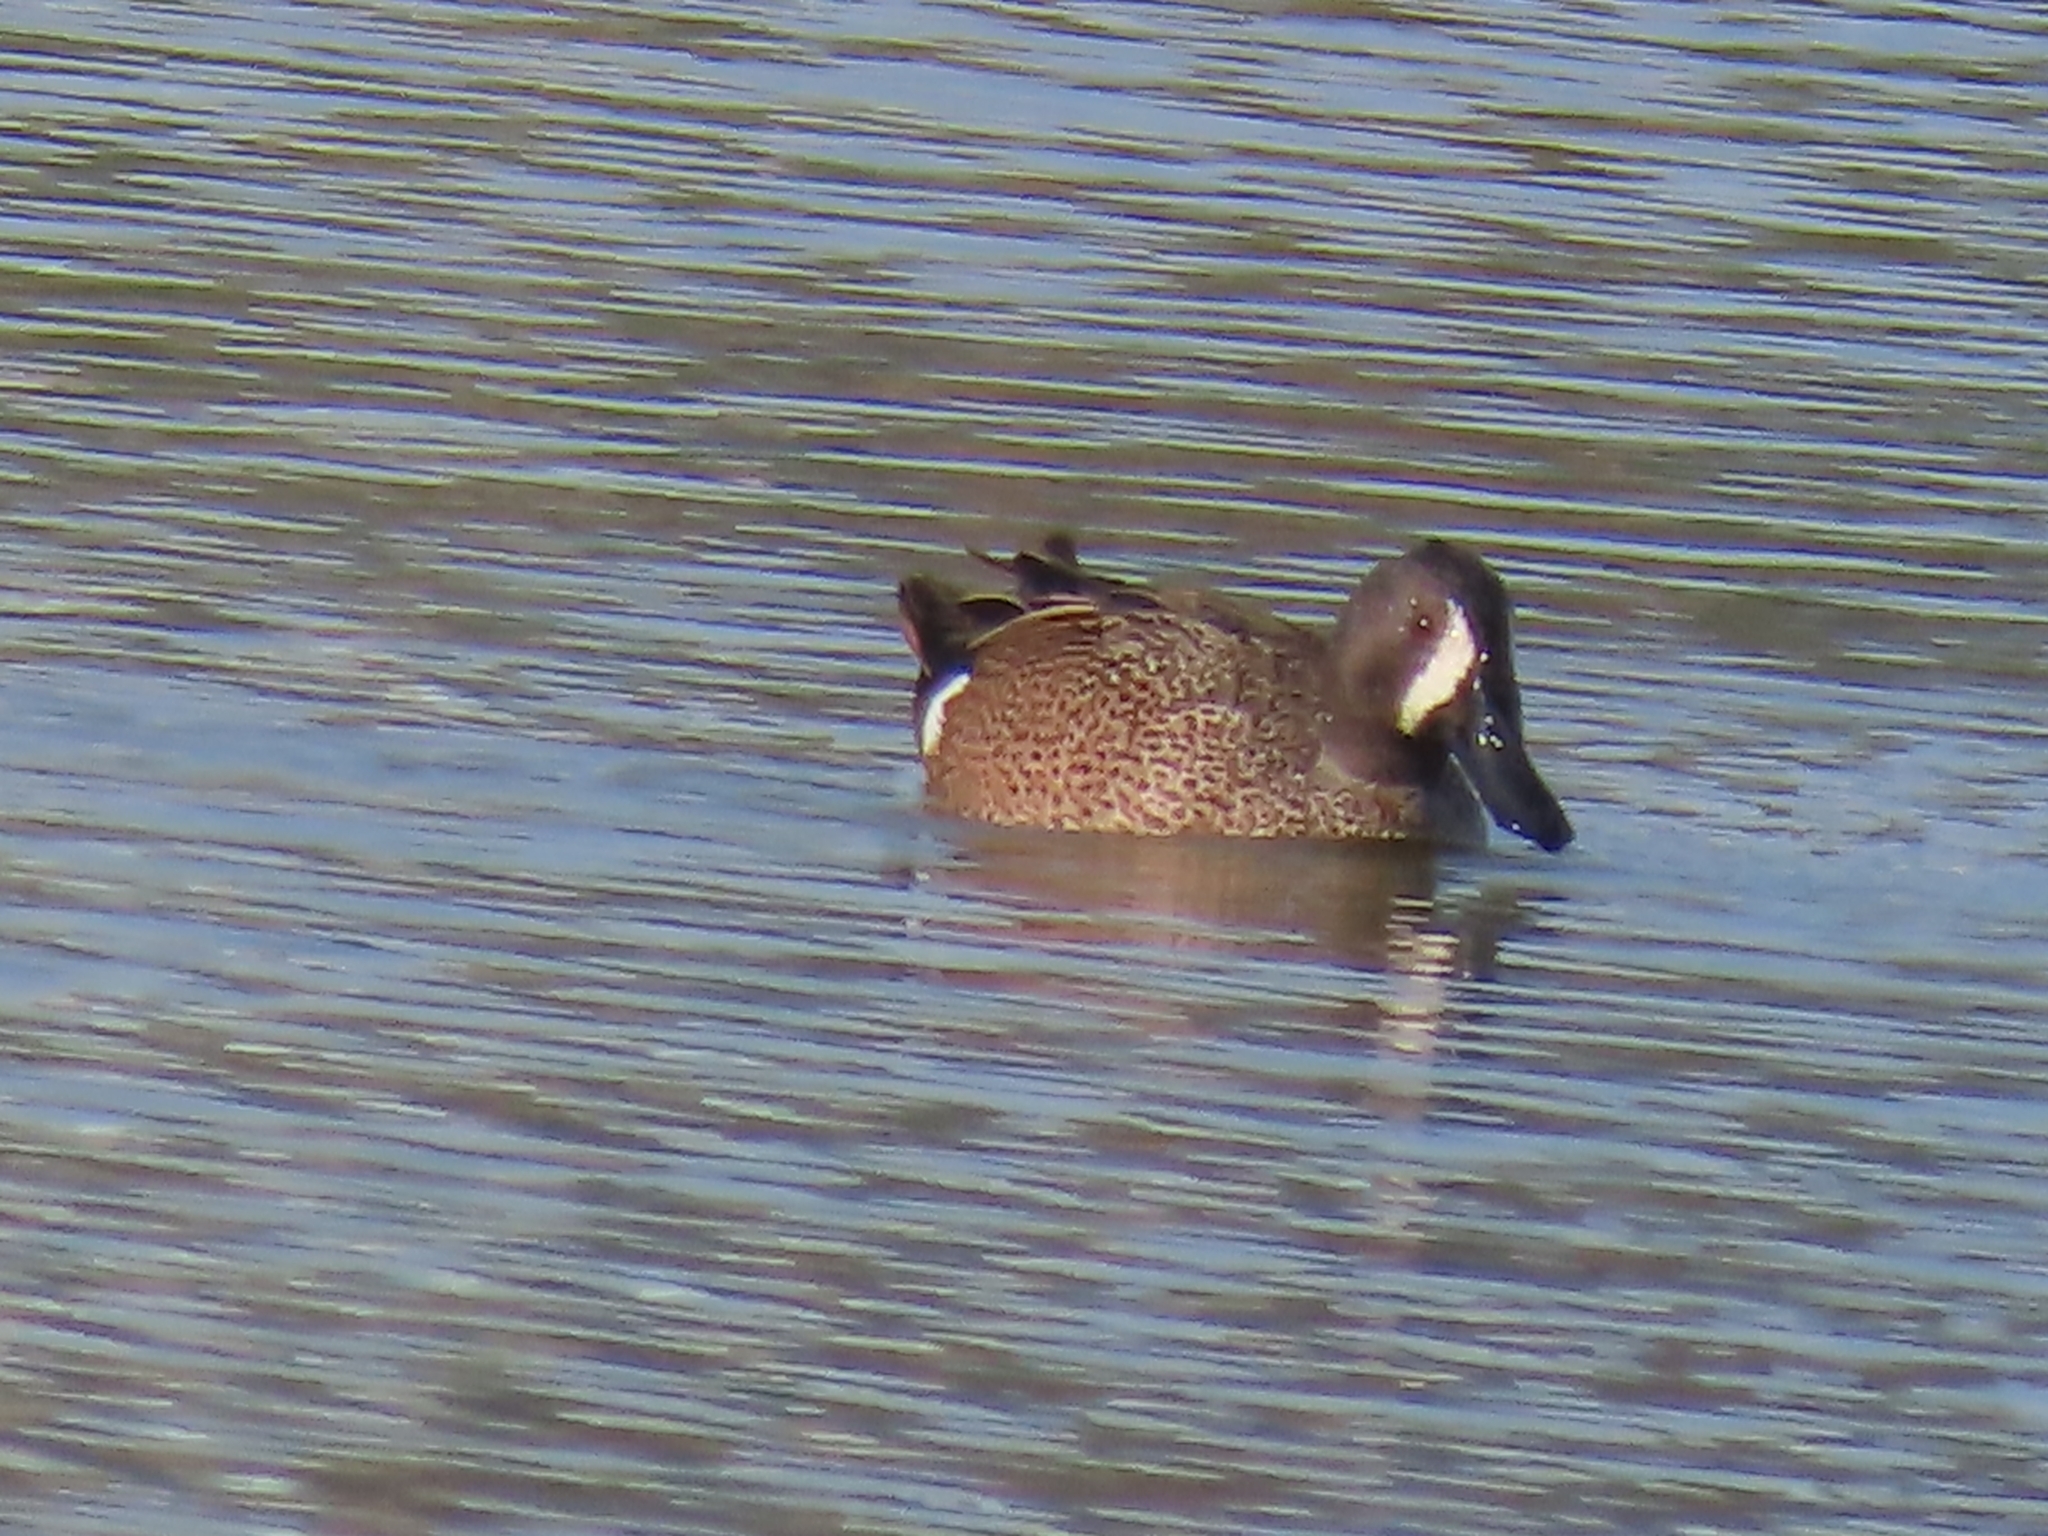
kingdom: Animalia
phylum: Chordata
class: Aves
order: Anseriformes
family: Anatidae
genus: Spatula
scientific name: Spatula discors
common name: Blue-winged teal
